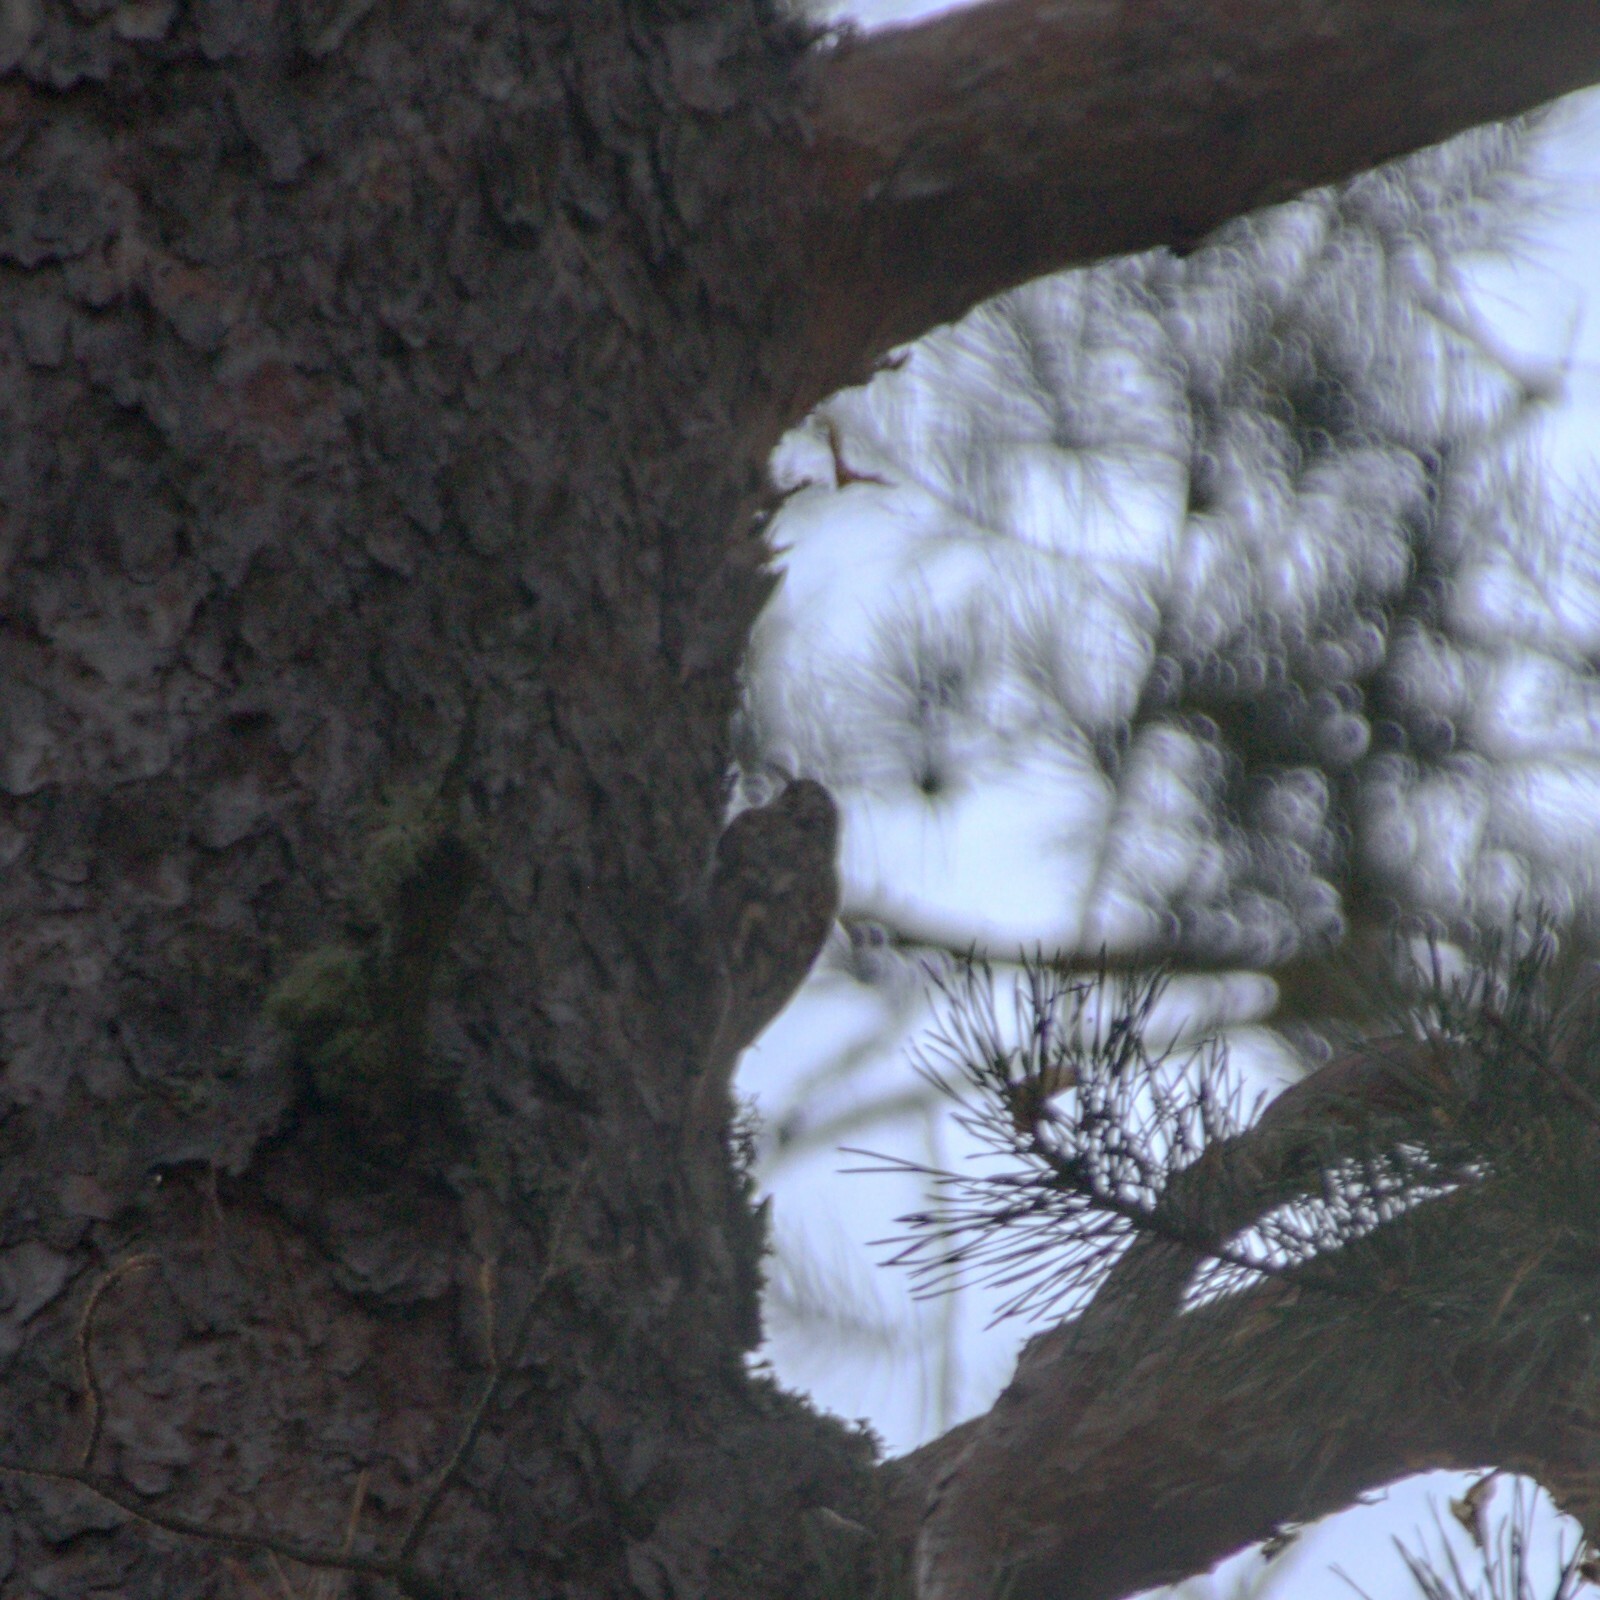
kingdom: Animalia
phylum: Chordata
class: Aves
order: Passeriformes
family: Certhiidae
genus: Certhia
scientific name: Certhia familiaris
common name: Eurasian treecreeper
